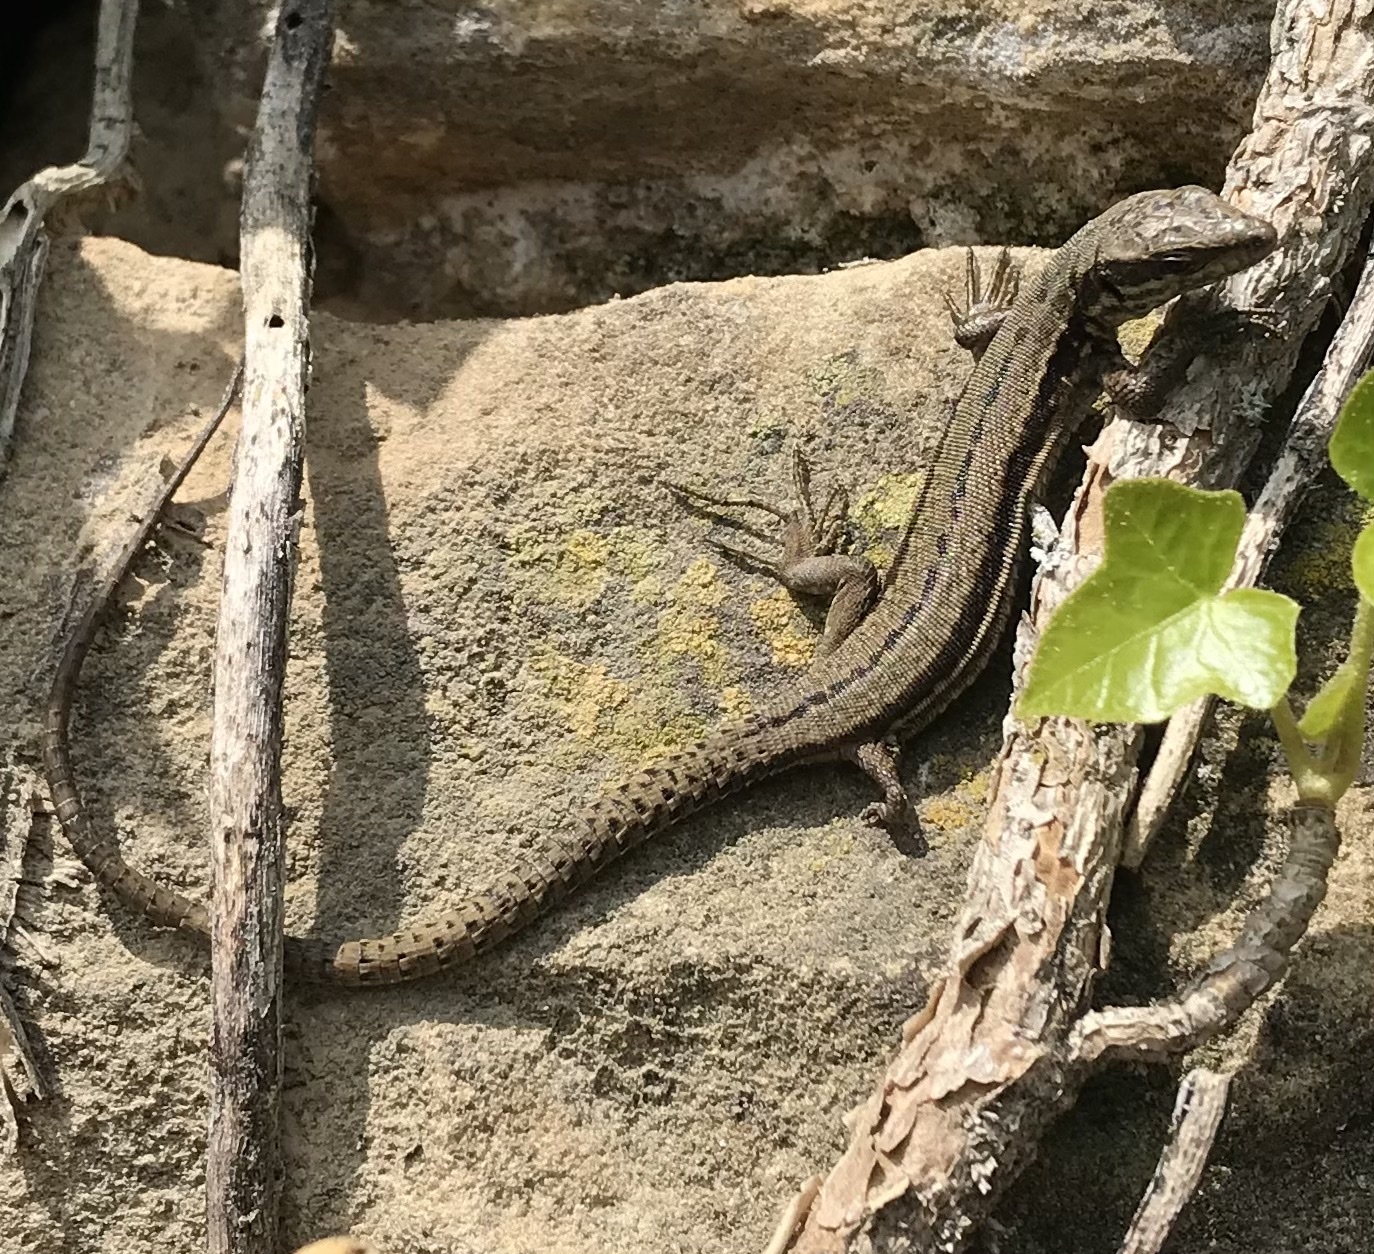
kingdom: Animalia
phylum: Chordata
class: Squamata
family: Lacertidae
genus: Podarcis
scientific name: Podarcis muralis
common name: Common wall lizard
